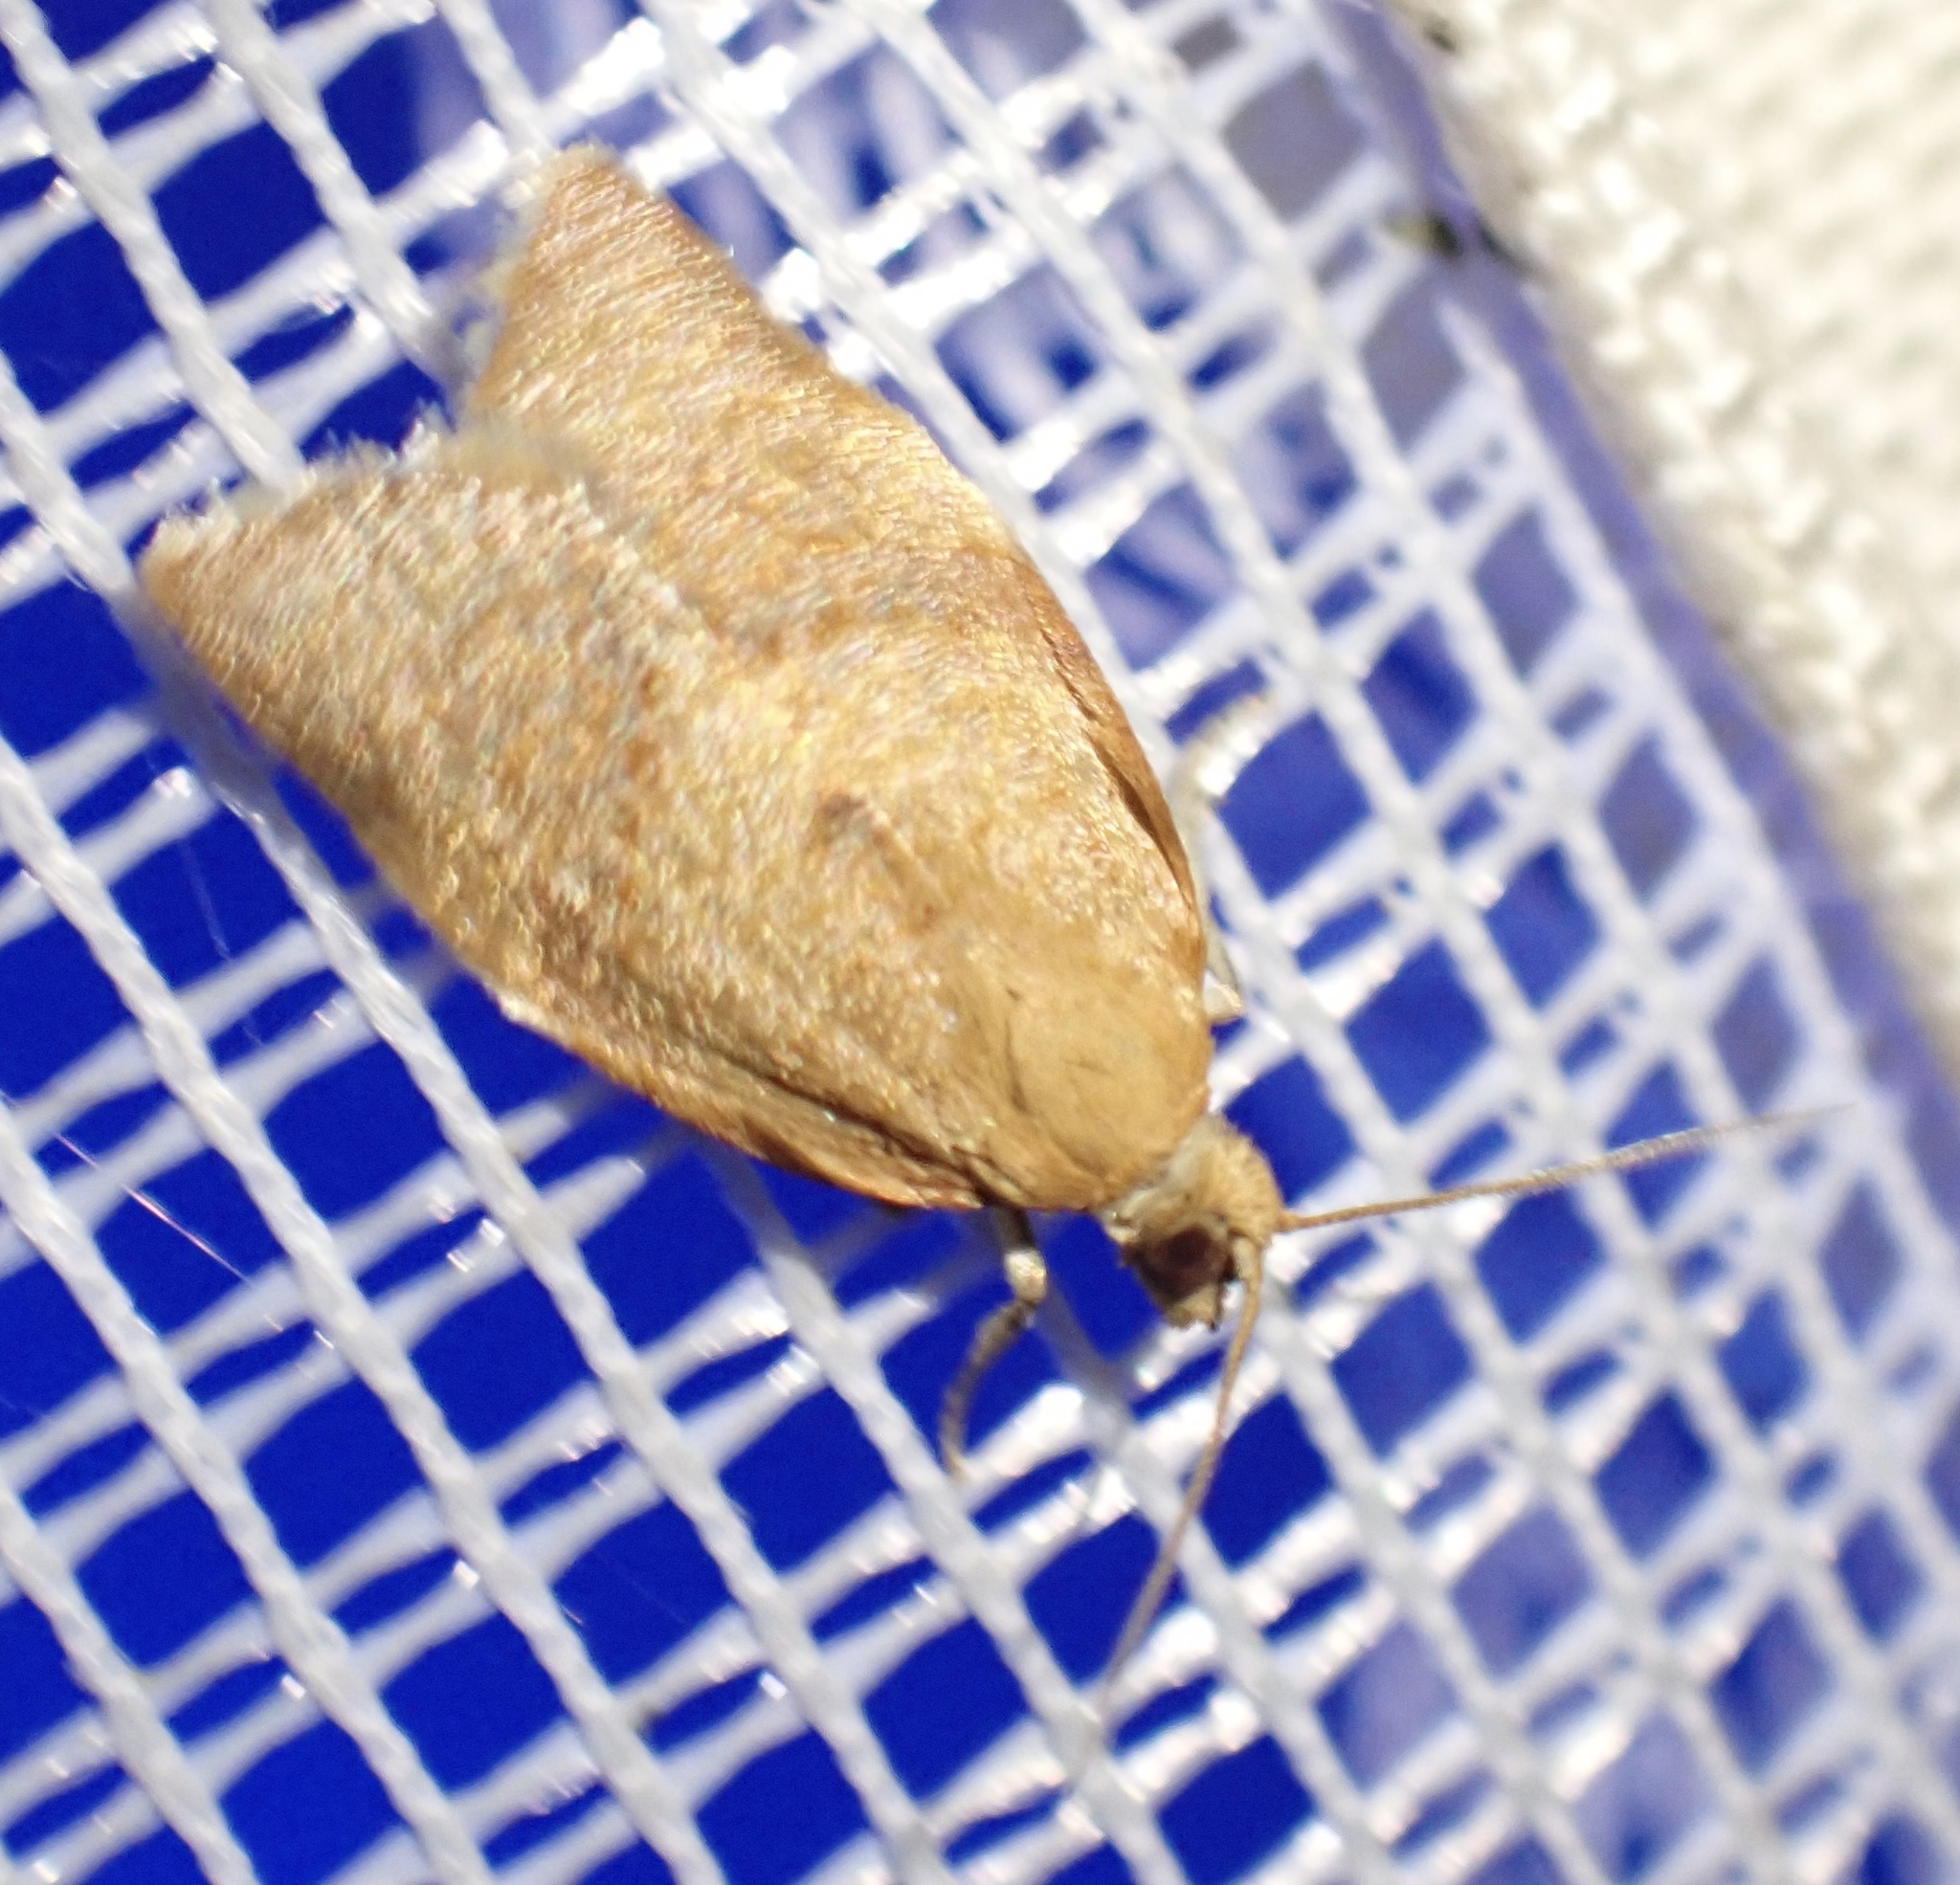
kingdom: Animalia
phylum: Arthropoda
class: Insecta
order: Lepidoptera
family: Tortricidae
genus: Clepsis
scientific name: Clepsis consimilana
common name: Privet tortrix
